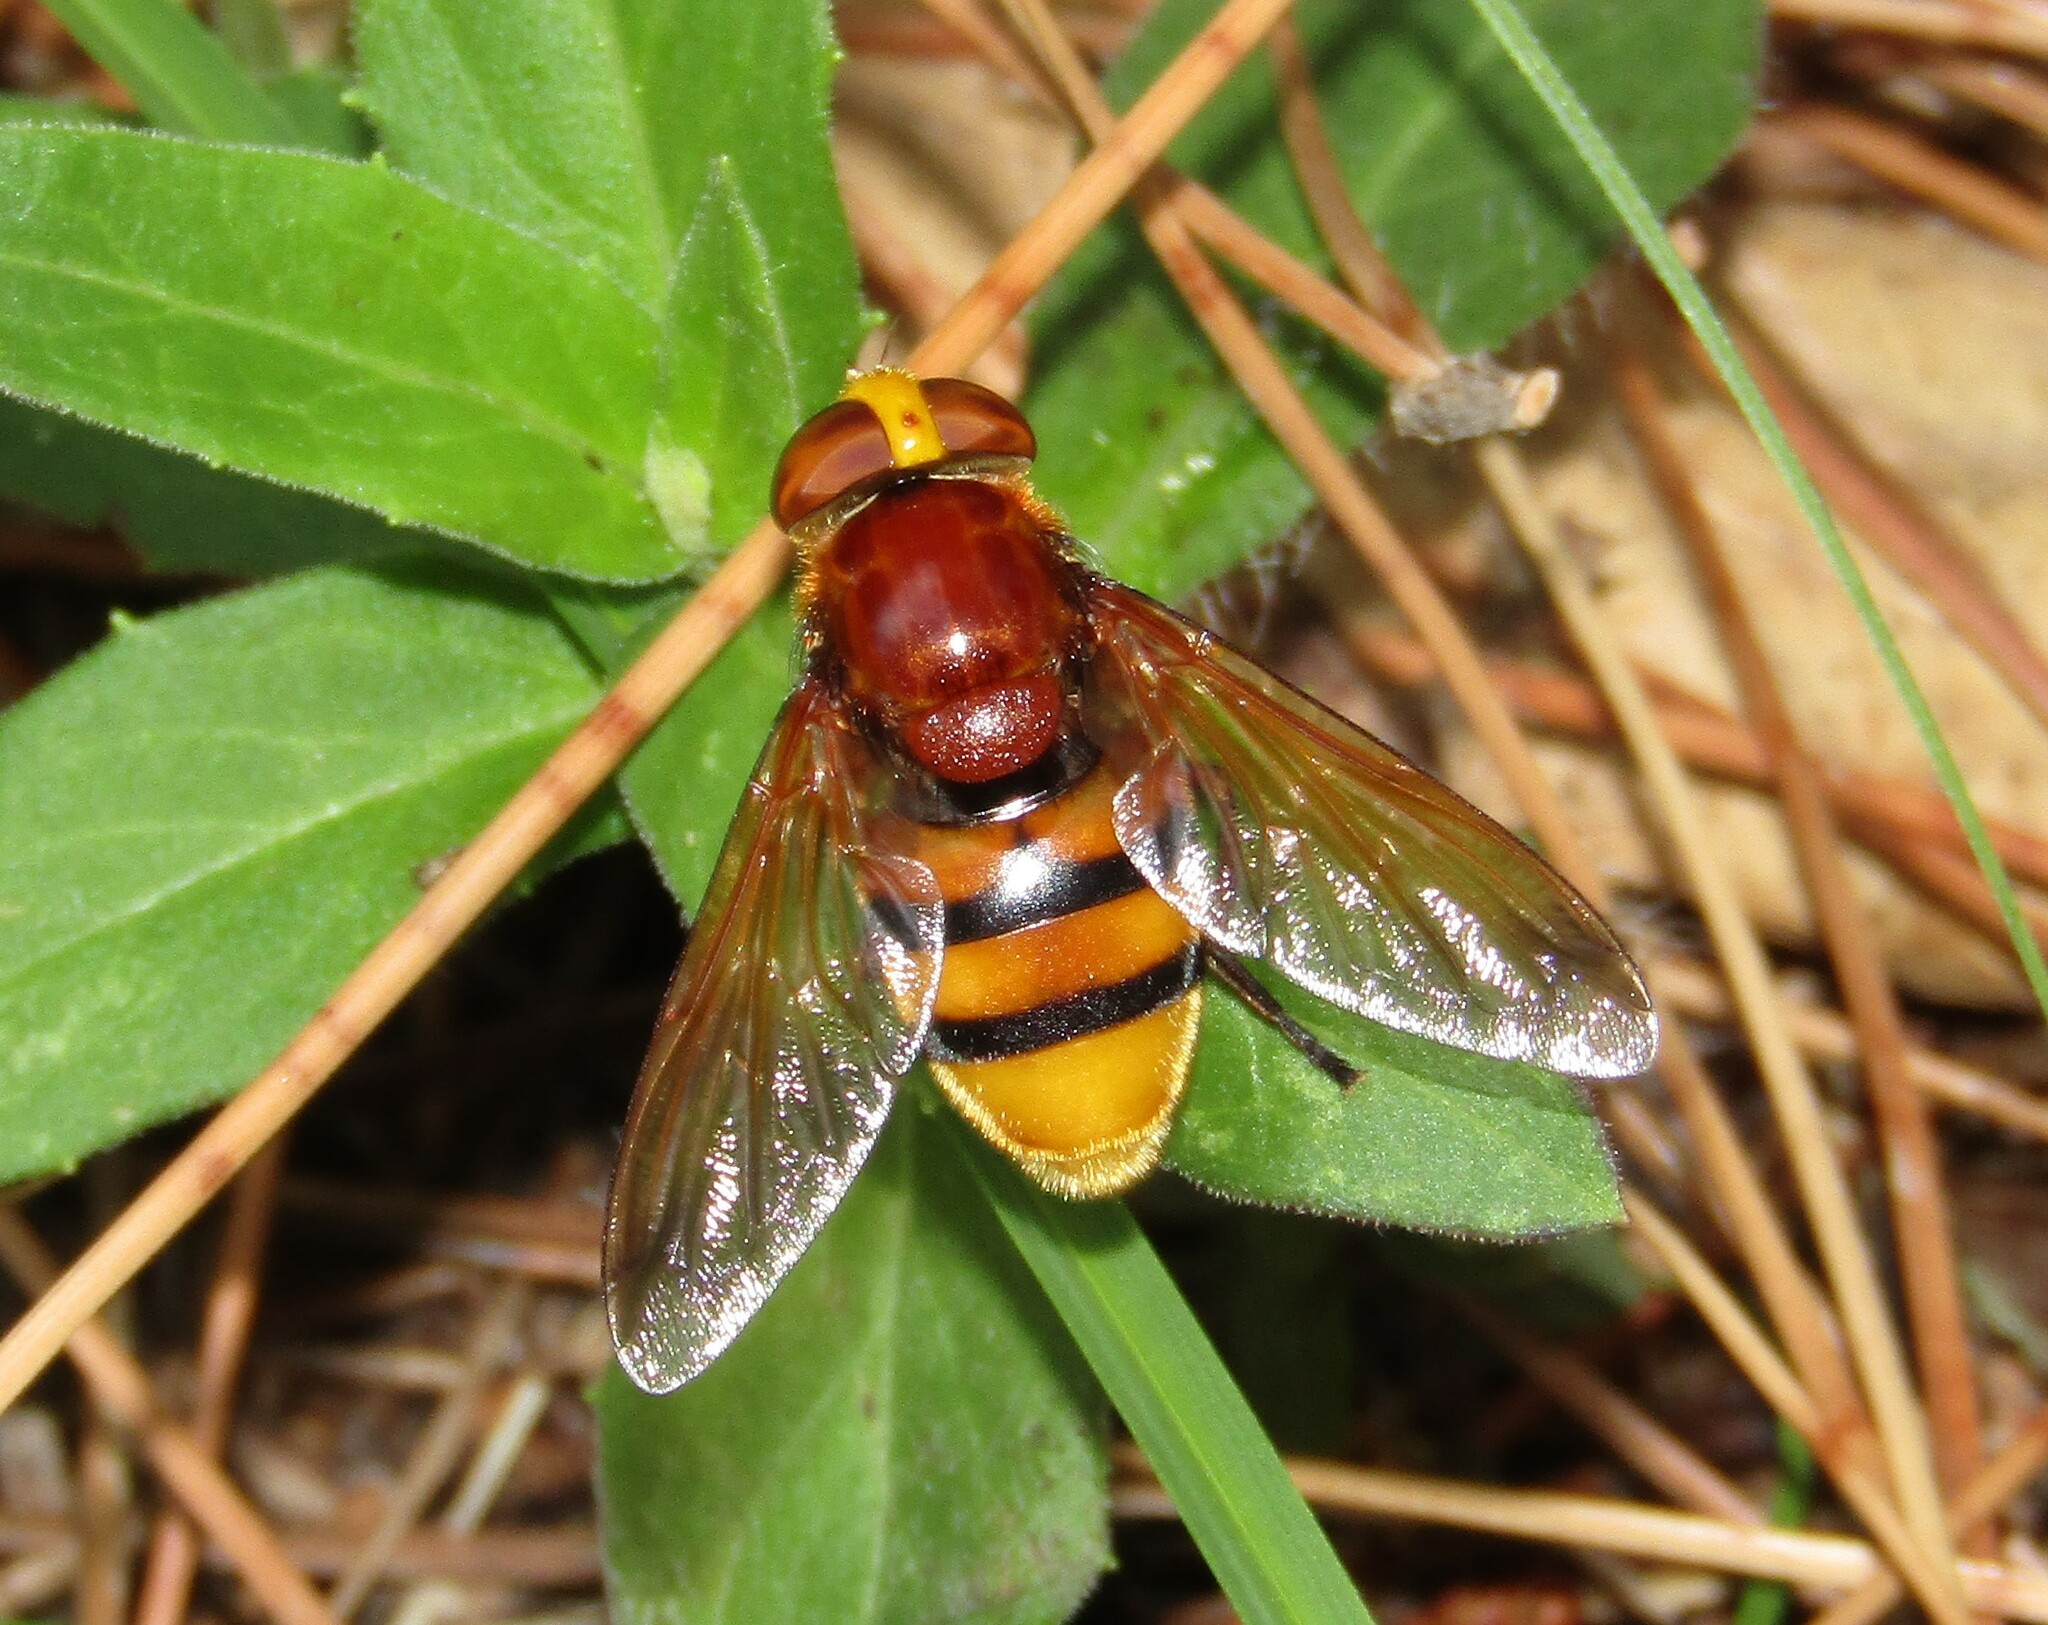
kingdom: Animalia
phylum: Arthropoda
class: Insecta
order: Diptera
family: Syrphidae
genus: Volucella
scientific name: Volucella zonaria
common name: Hornet hoverfly
